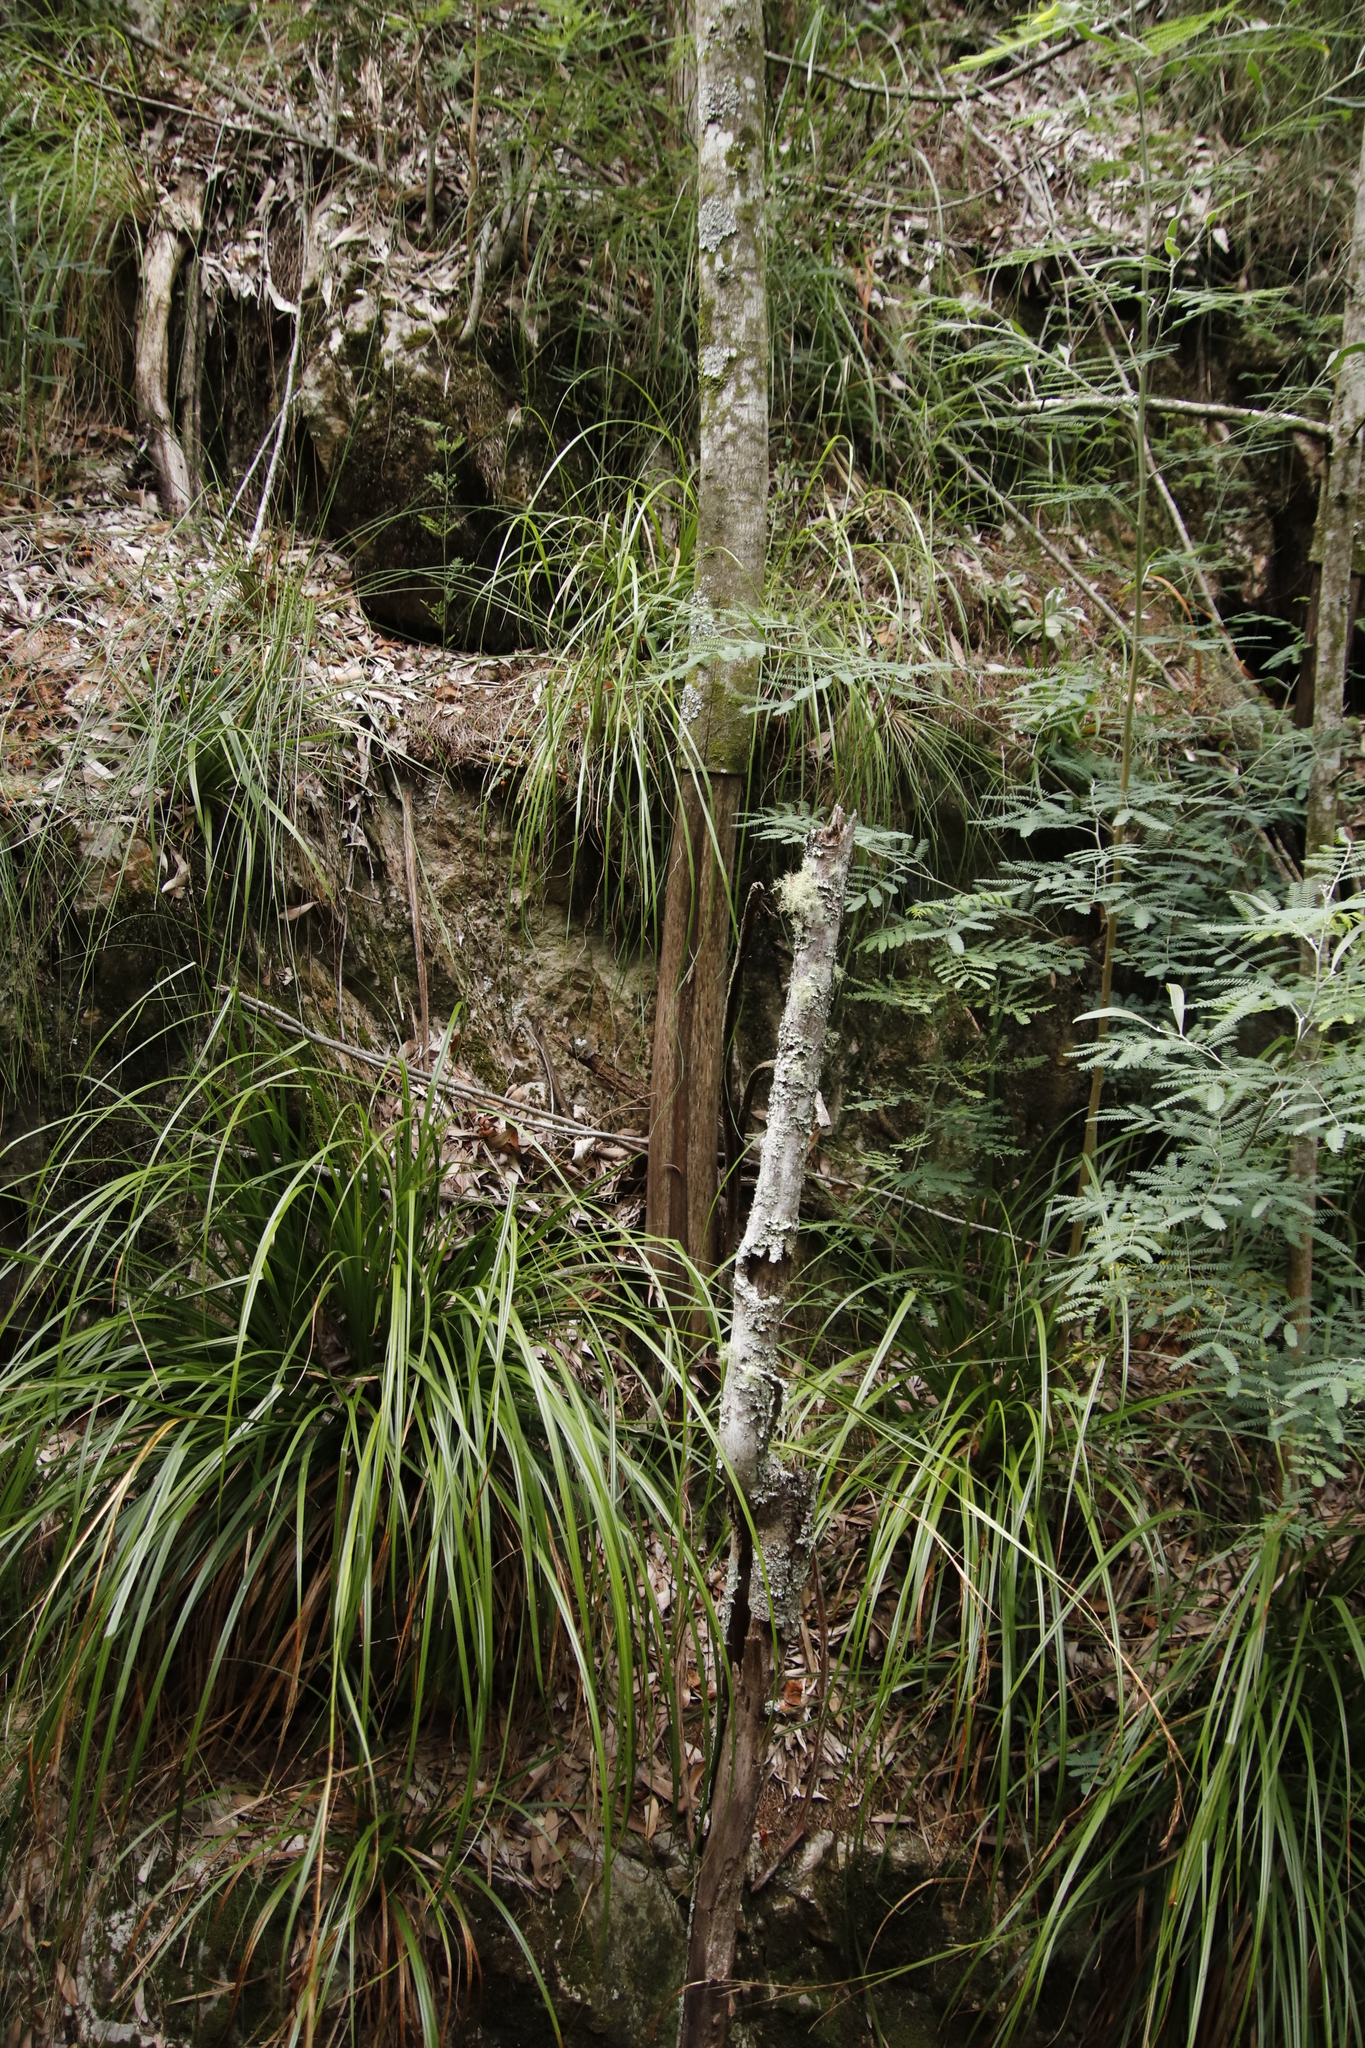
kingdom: Plantae
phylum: Tracheophyta
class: Magnoliopsida
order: Fabales
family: Fabaceae
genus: Acacia
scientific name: Acacia melanoxylon
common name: Blackwood
